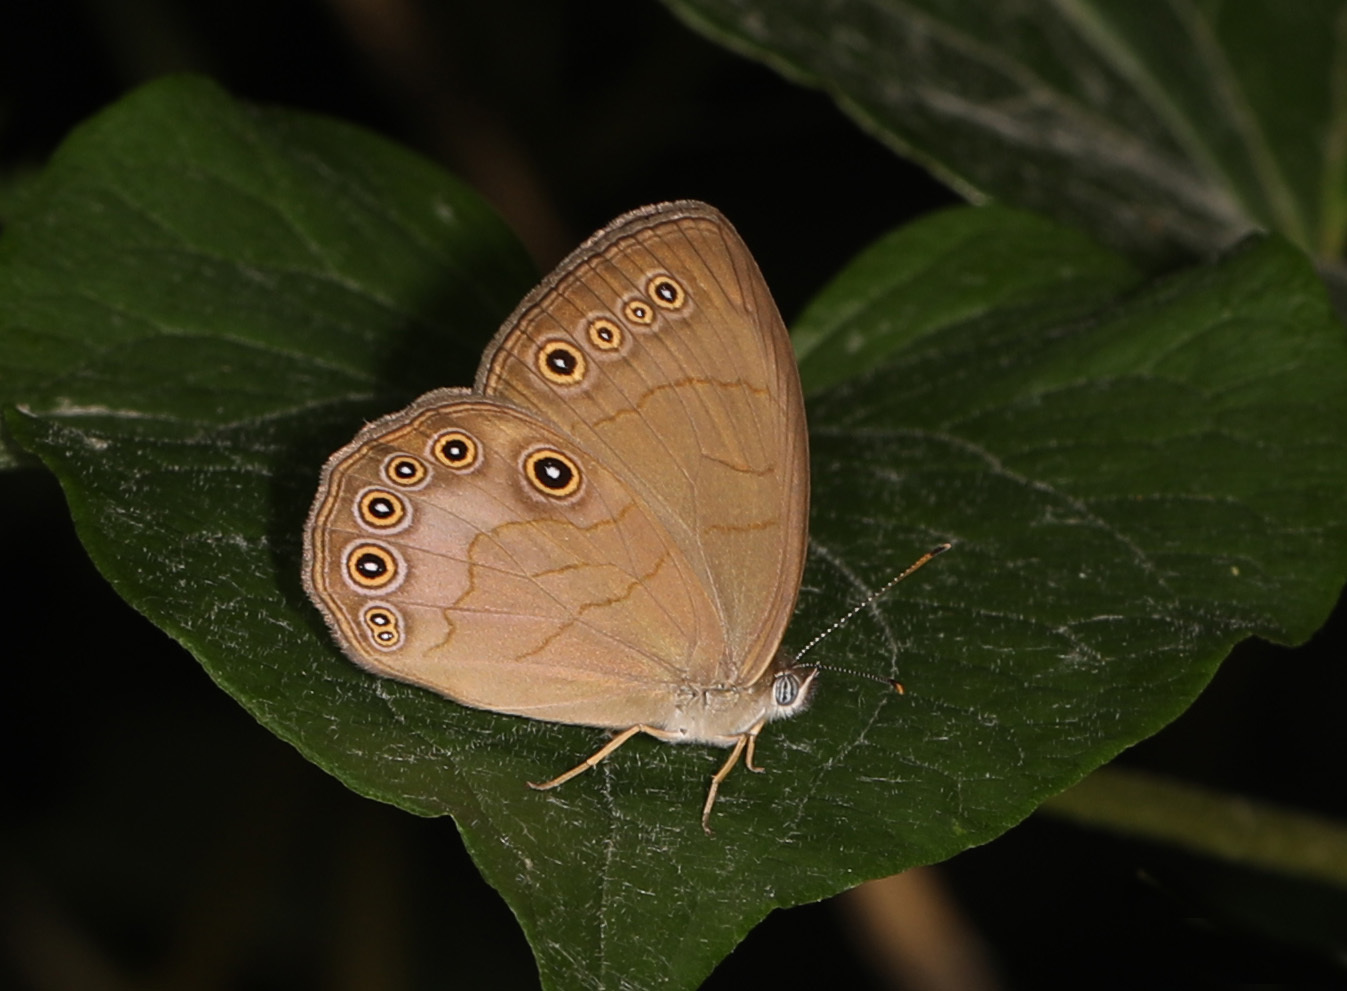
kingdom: Animalia
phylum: Arthropoda
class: Insecta
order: Lepidoptera
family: Nymphalidae
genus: Lethe
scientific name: Lethe eurydice
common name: Eyed brown
